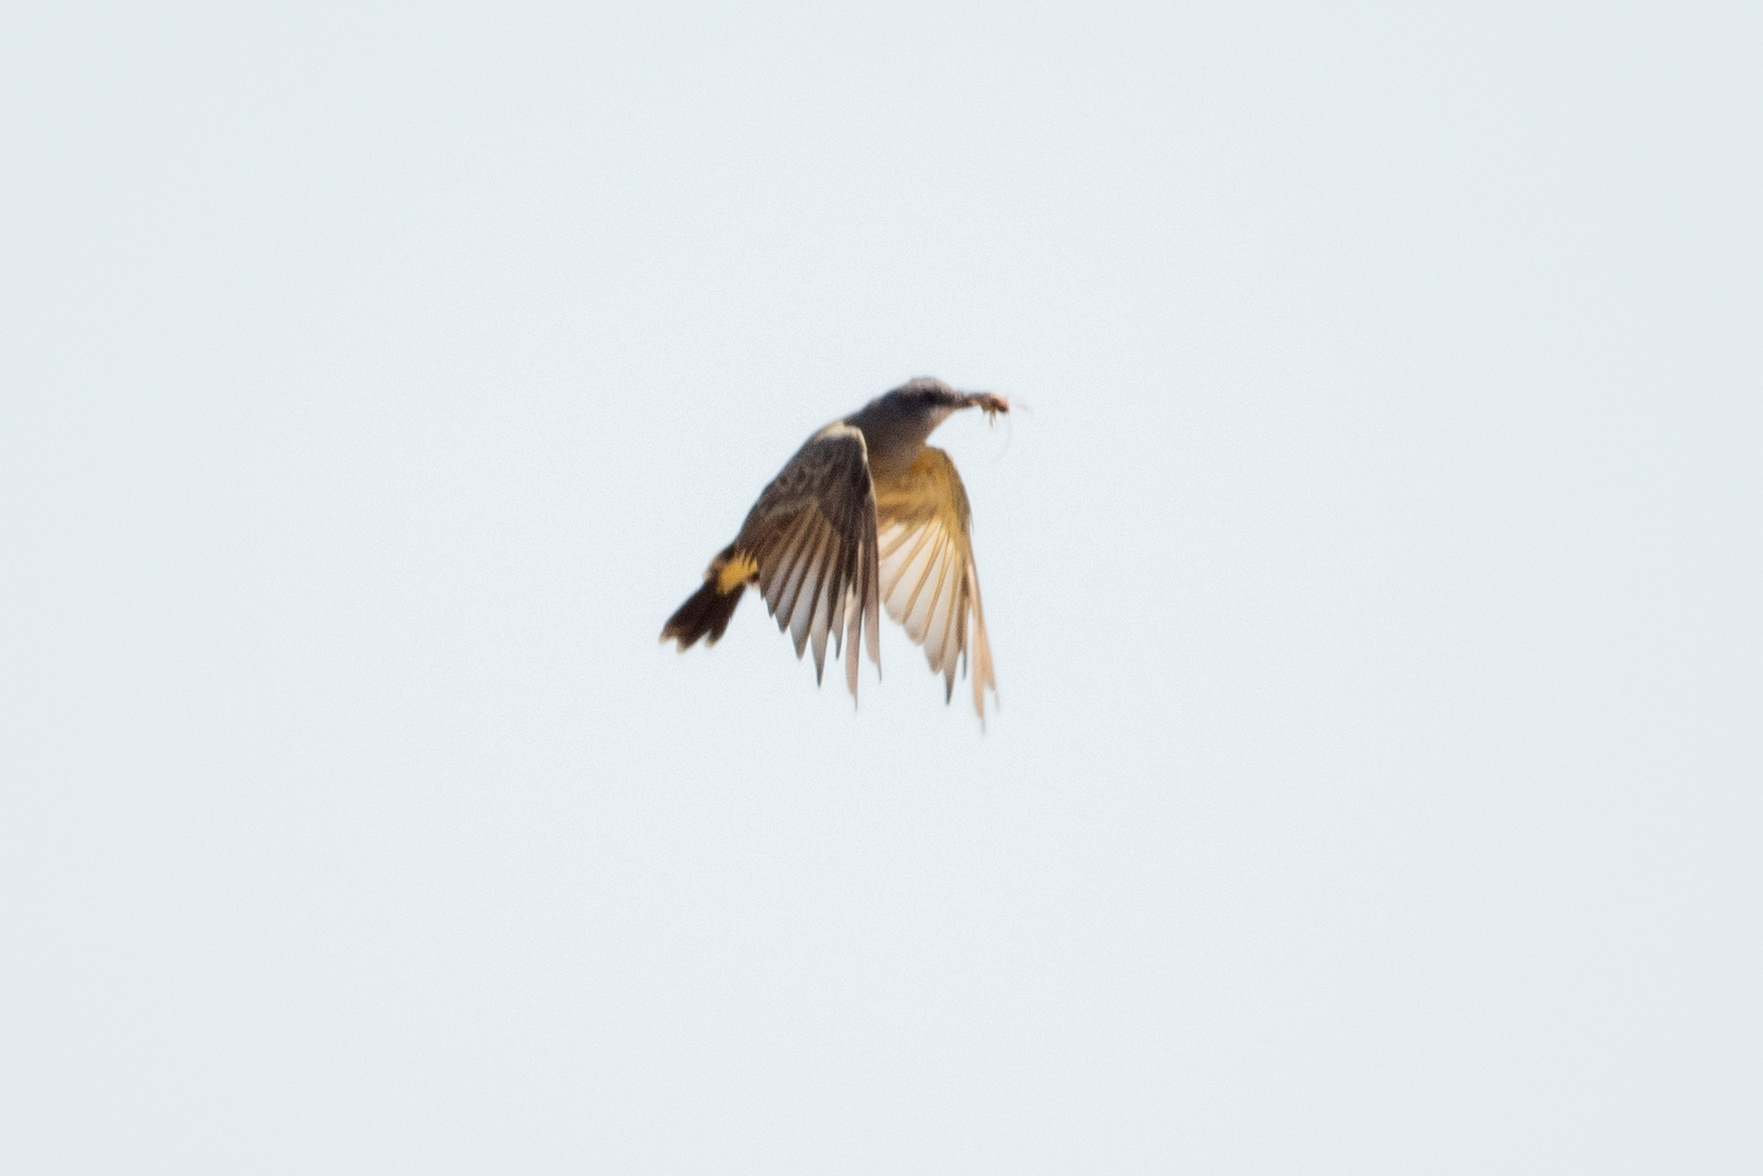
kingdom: Animalia
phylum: Chordata
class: Aves
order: Passeriformes
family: Tyrannidae
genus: Tyrannus
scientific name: Tyrannus vociferans
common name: Cassin's kingbird
